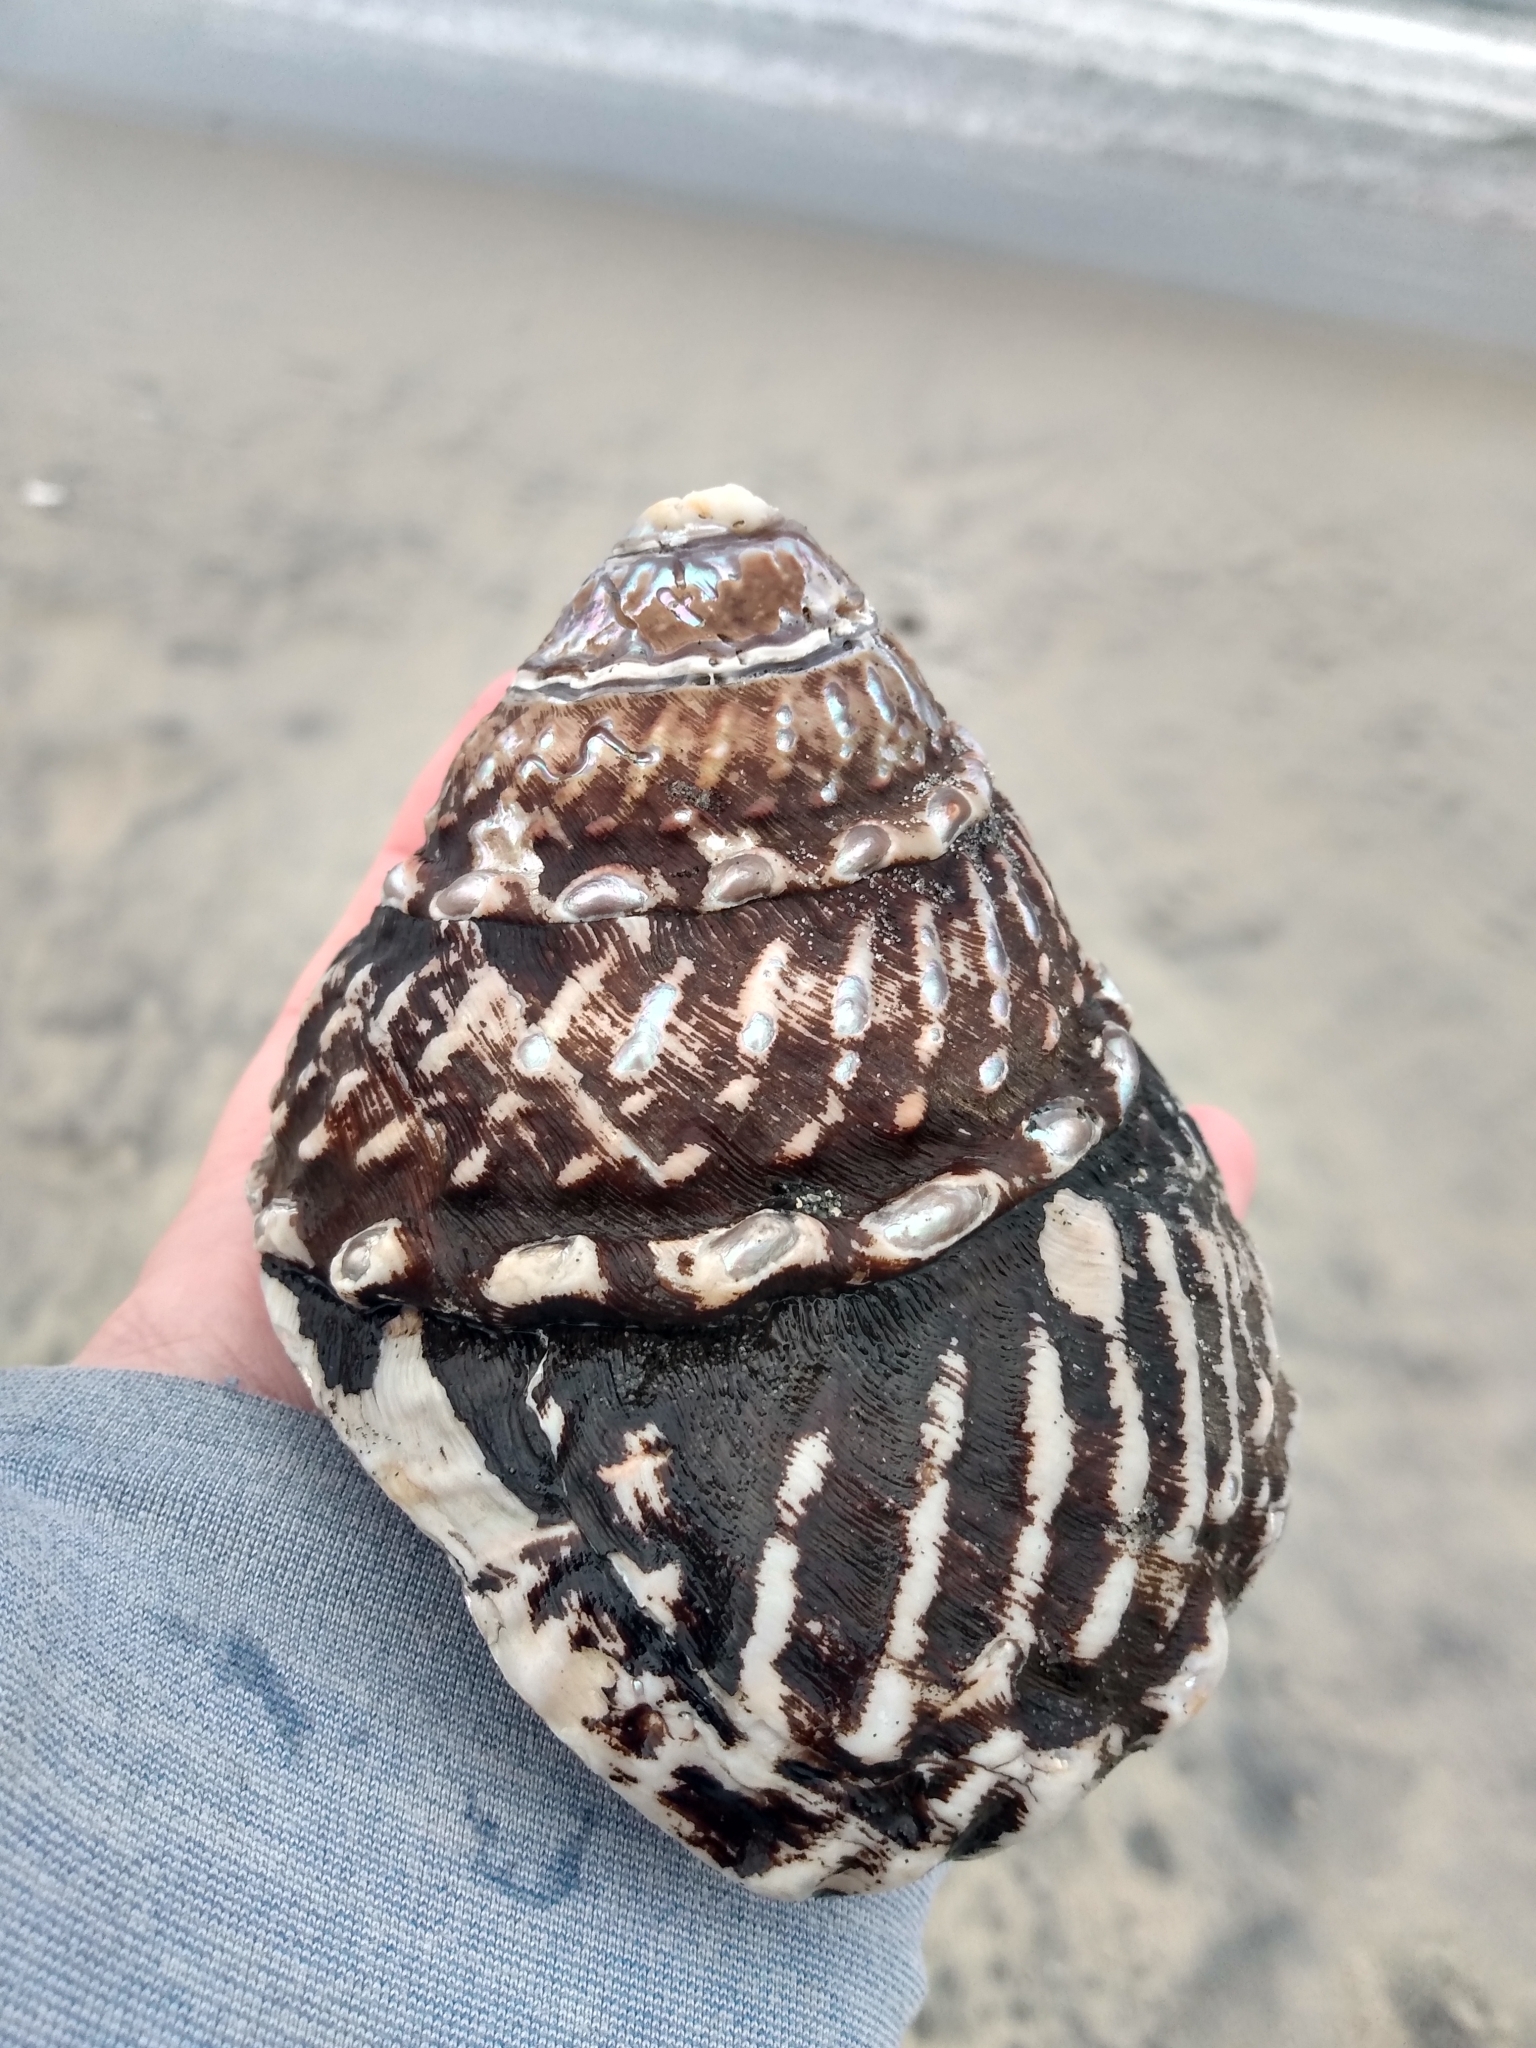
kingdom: Animalia
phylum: Mollusca
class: Gastropoda
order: Trochida
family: Turbinidae
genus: Megastraea
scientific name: Megastraea undosa
